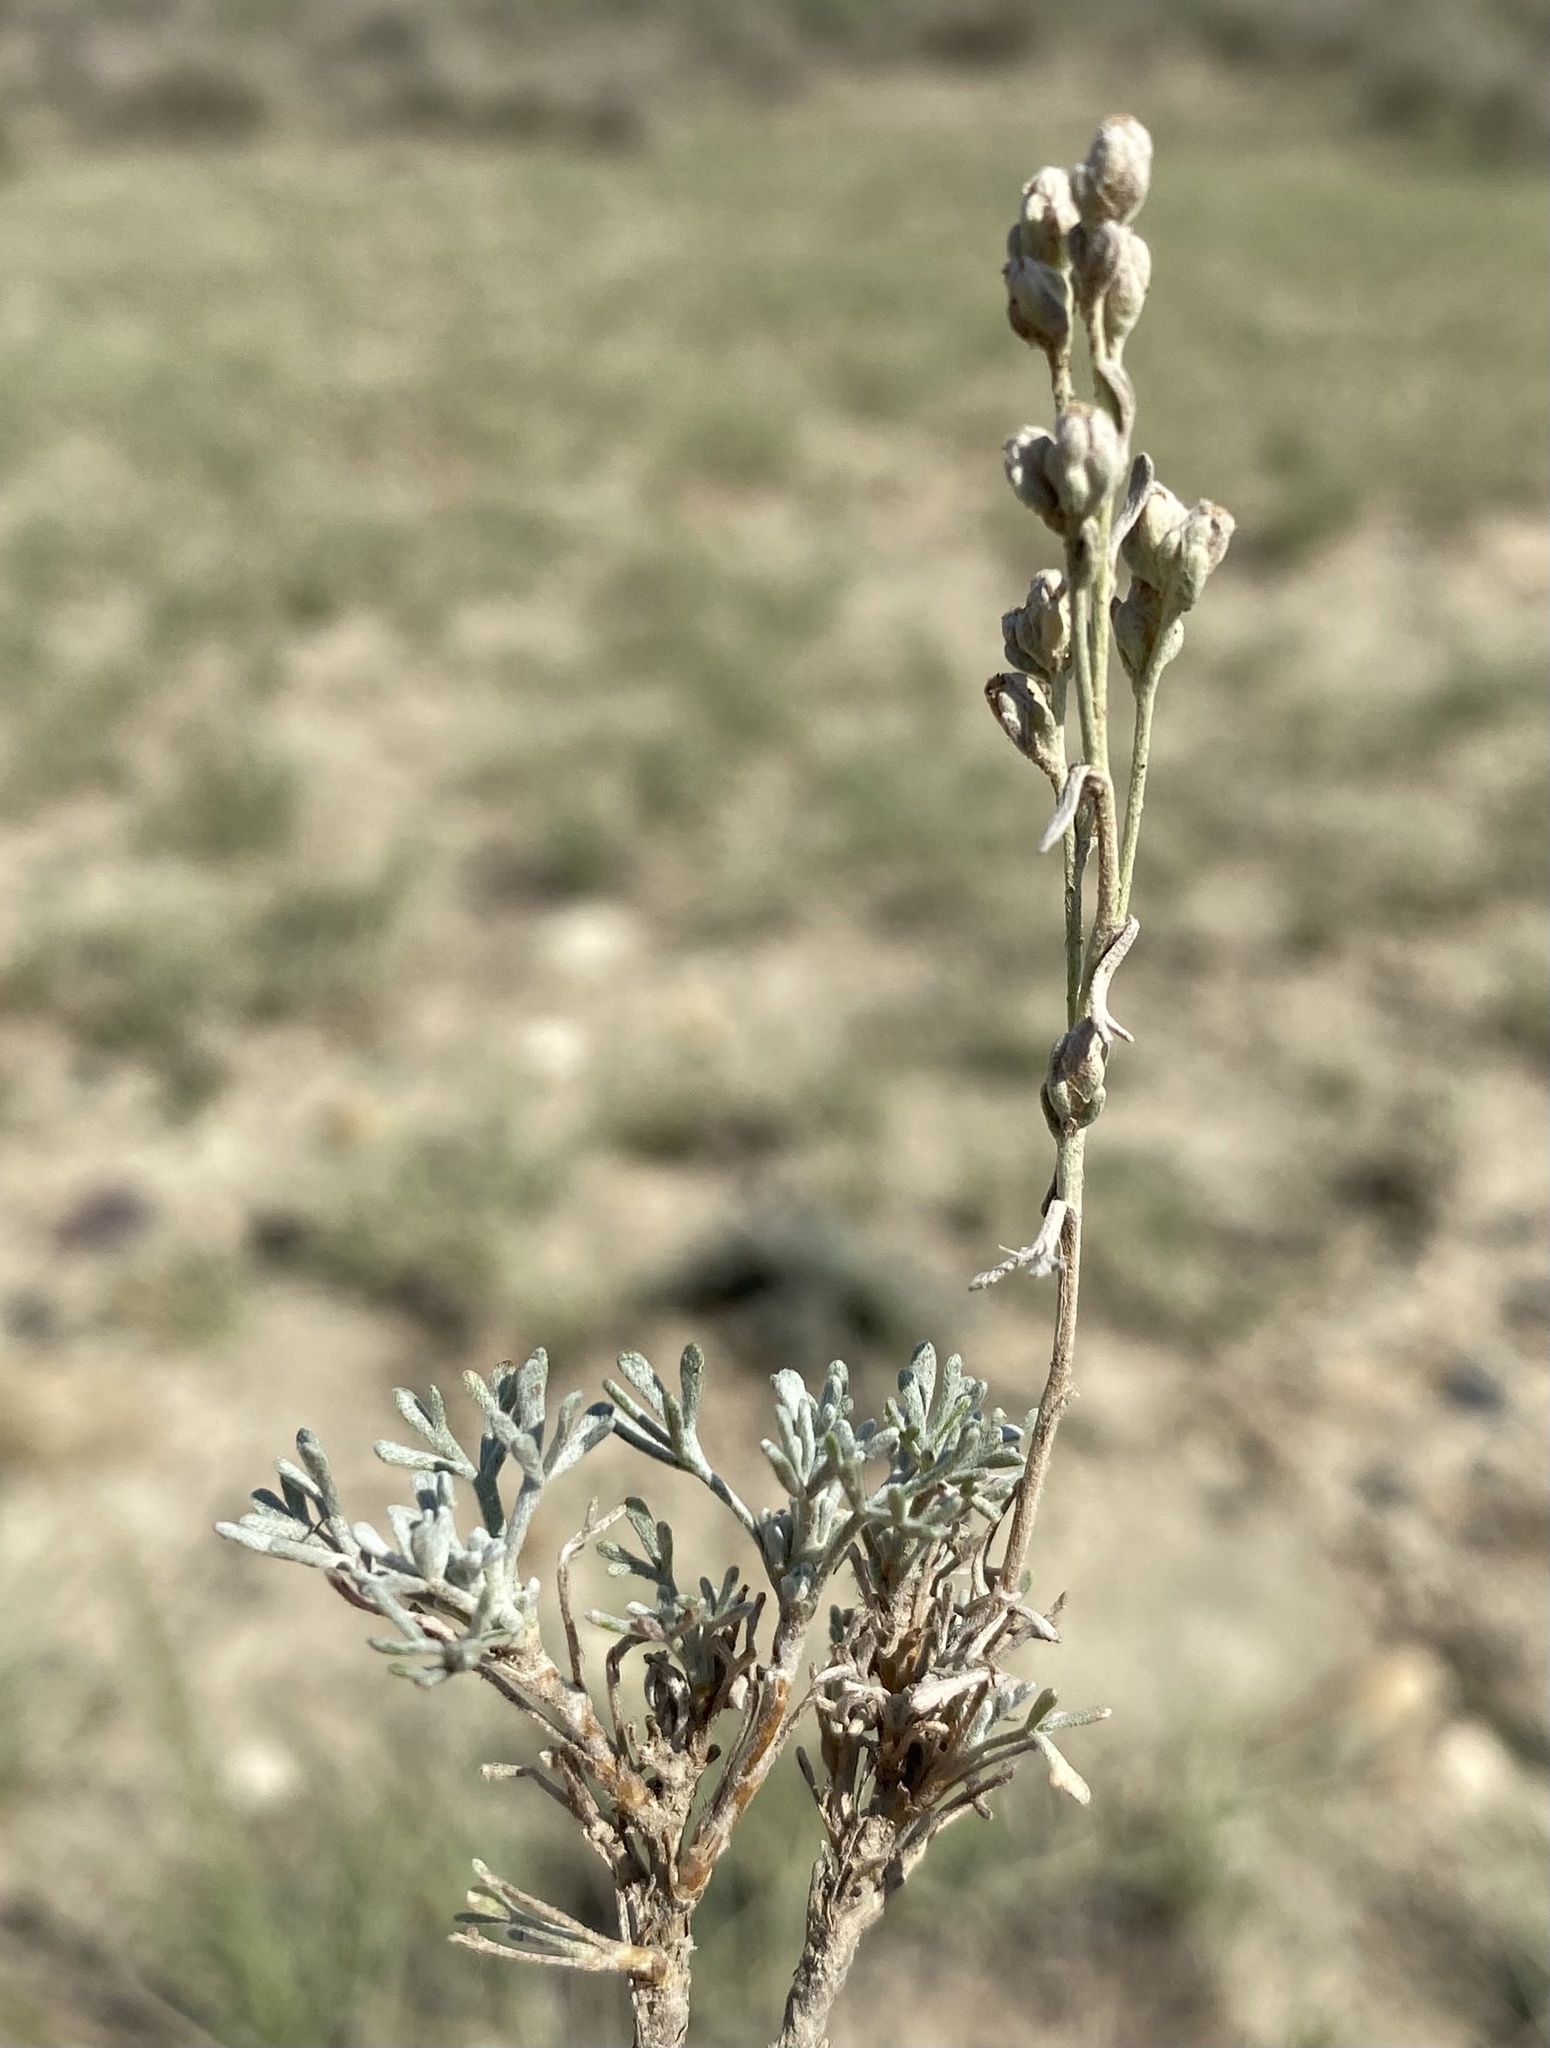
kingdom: Plantae
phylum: Tracheophyta
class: Magnoliopsida
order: Asterales
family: Asteraceae
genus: Artemisia
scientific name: Artemisia pedatifida
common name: Matted sagewort
